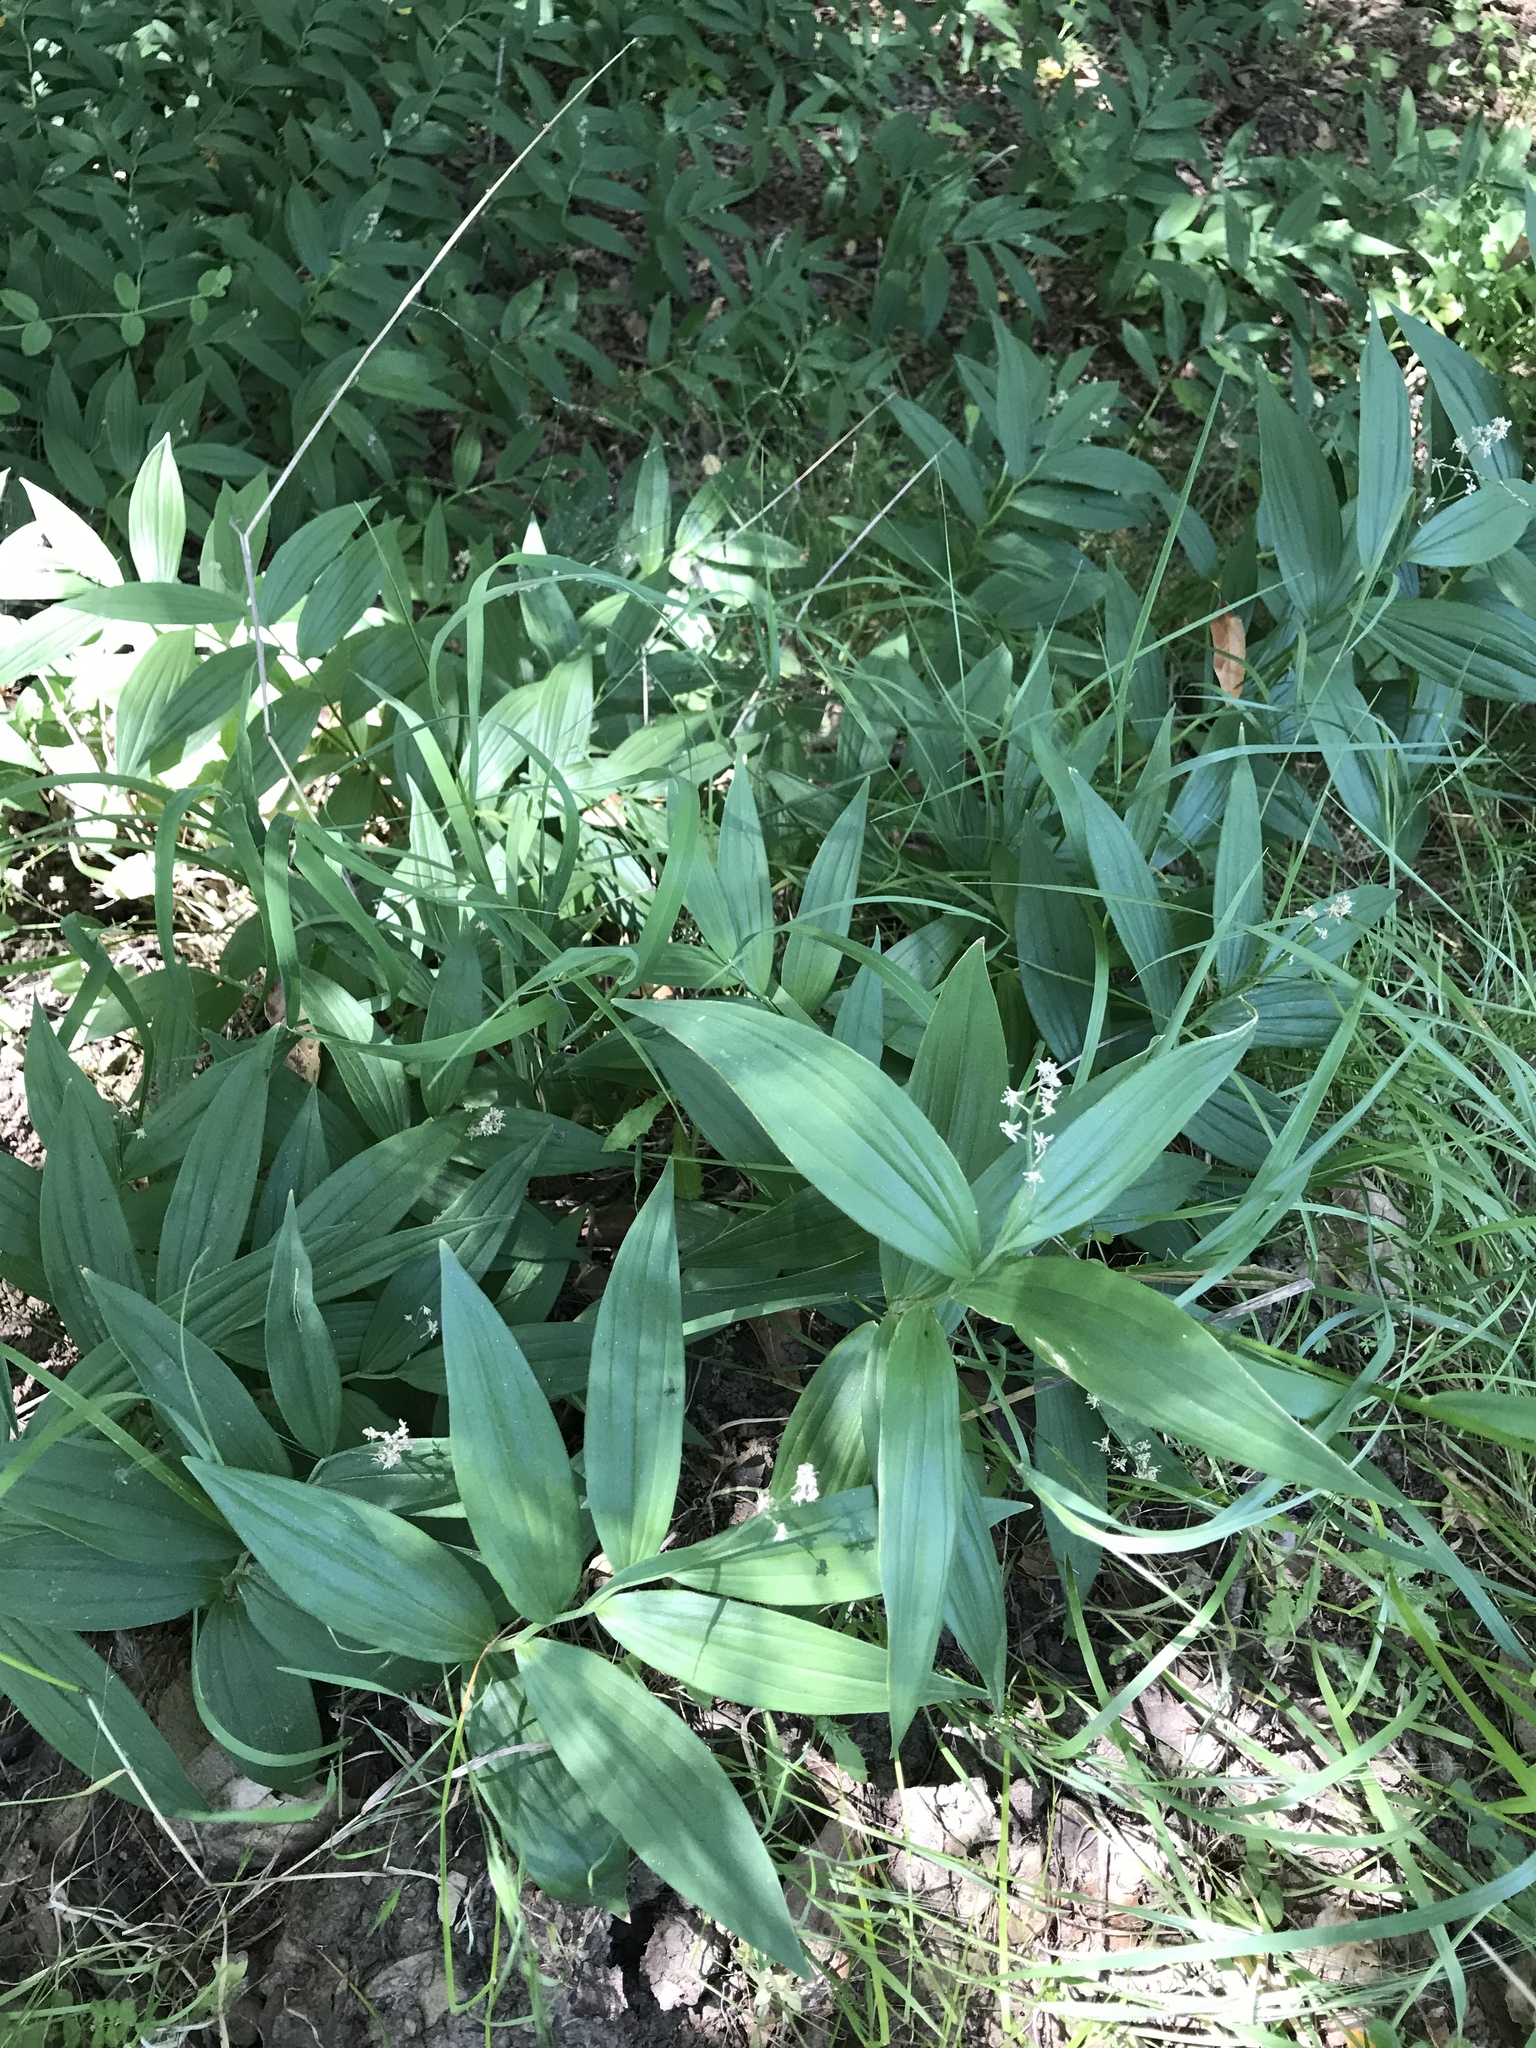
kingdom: Plantae
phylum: Tracheophyta
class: Liliopsida
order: Asparagales
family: Asparagaceae
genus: Maianthemum
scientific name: Maianthemum stellatum
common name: Little false solomon's seal
